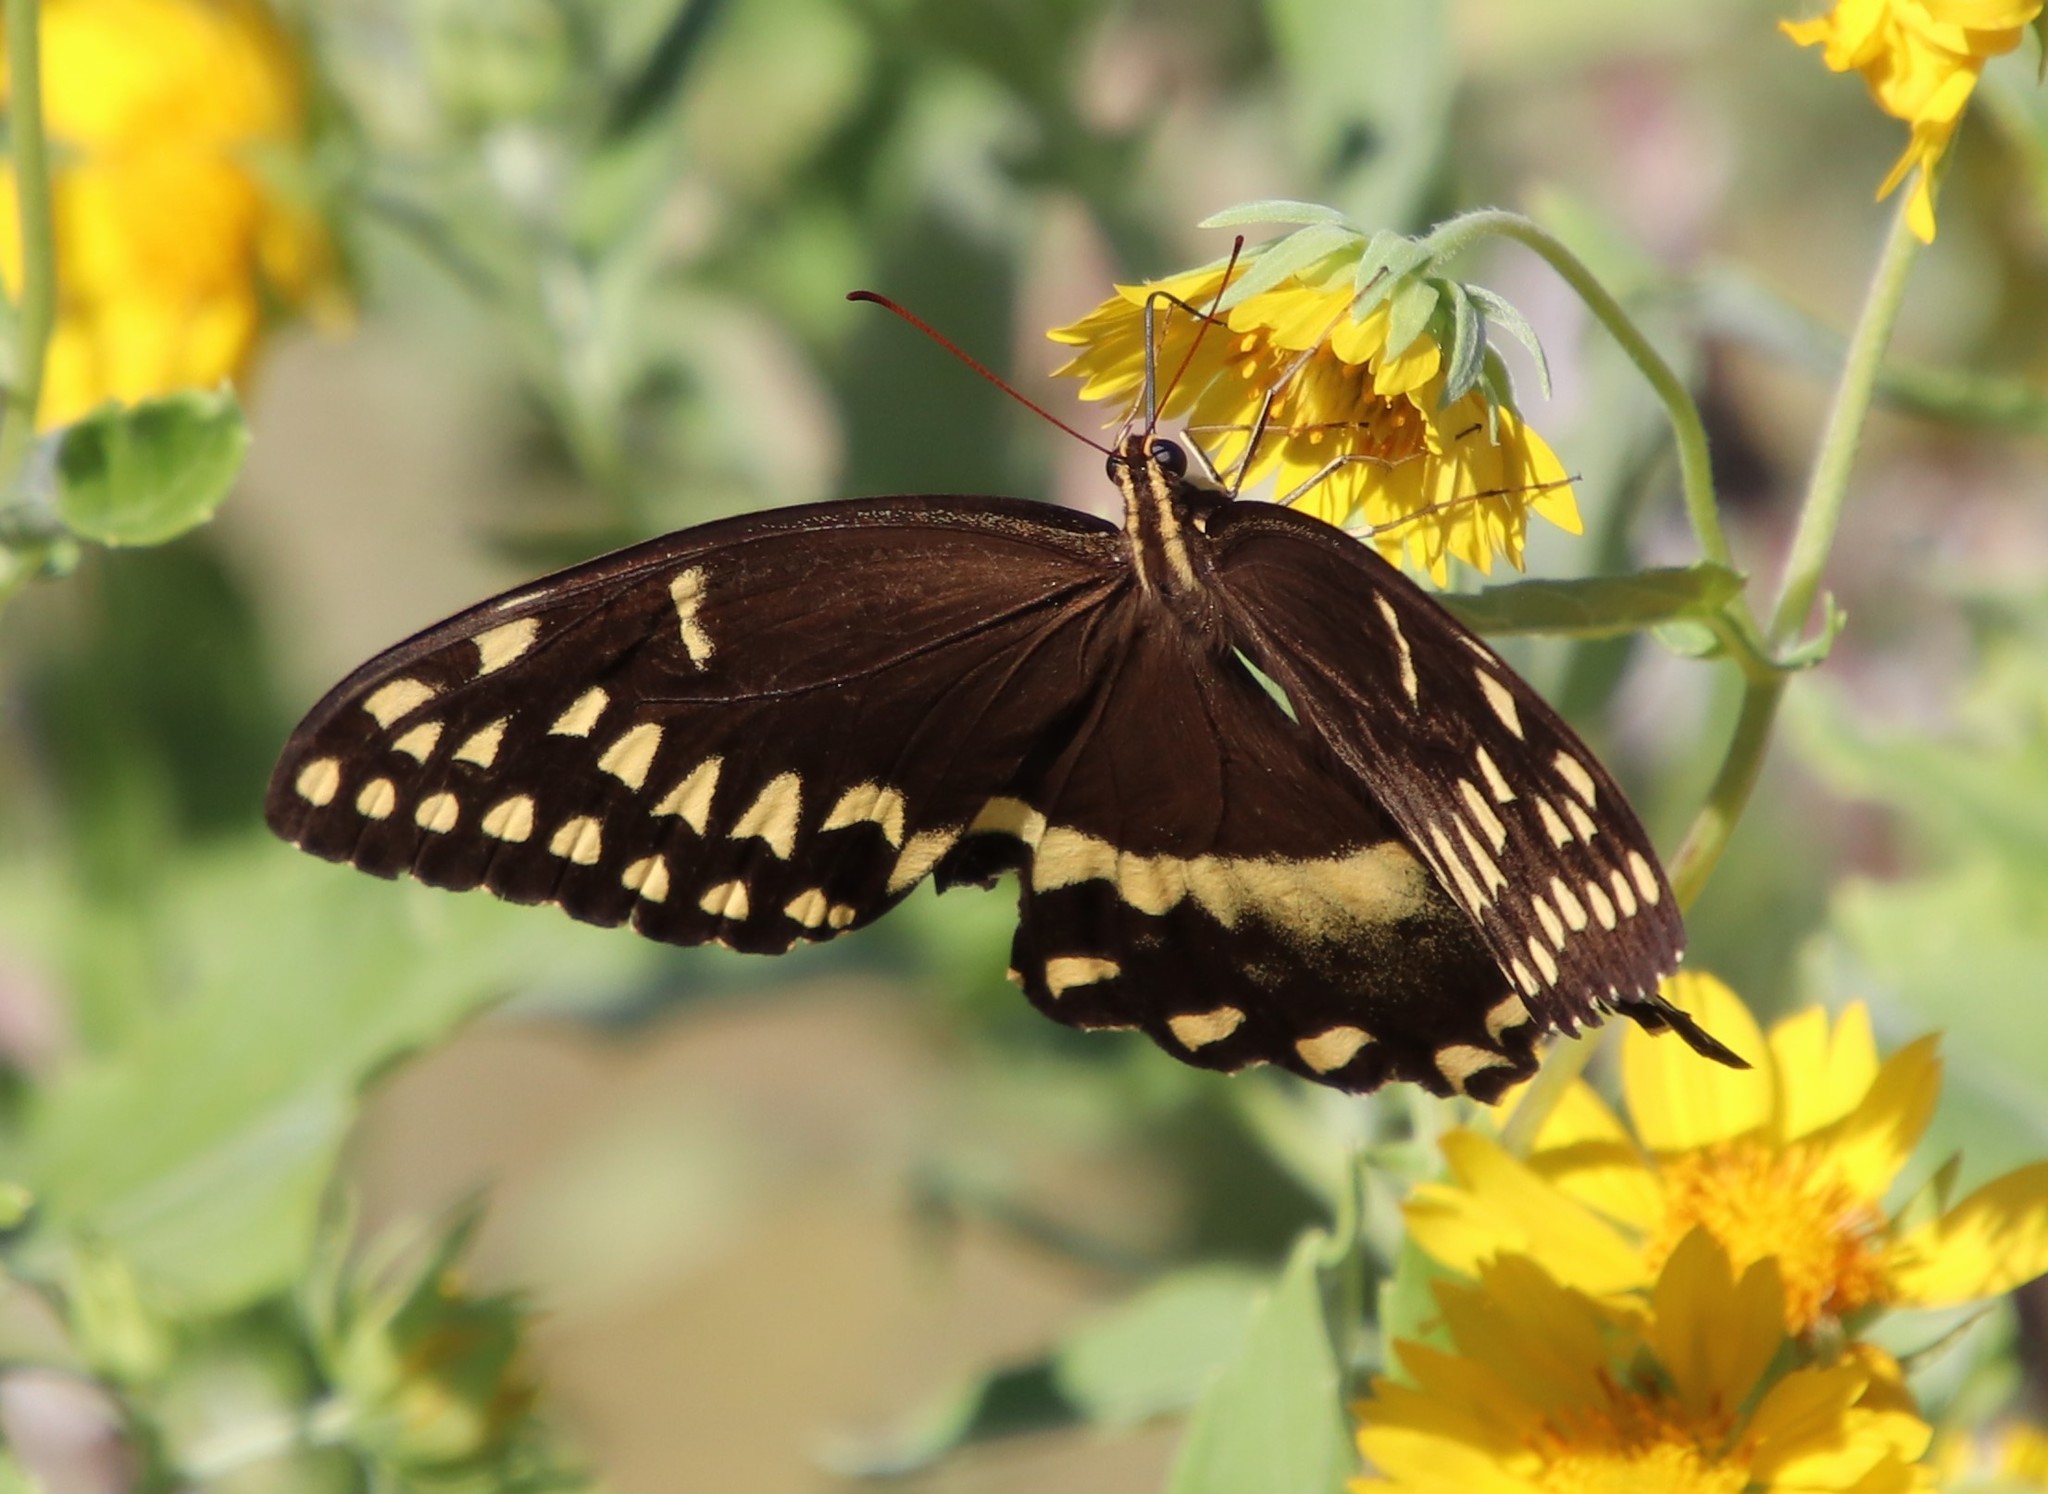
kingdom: Animalia
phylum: Arthropoda
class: Insecta
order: Lepidoptera
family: Papilionidae
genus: Papilio
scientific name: Papilio palamedes
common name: Palamedes swallowtail
